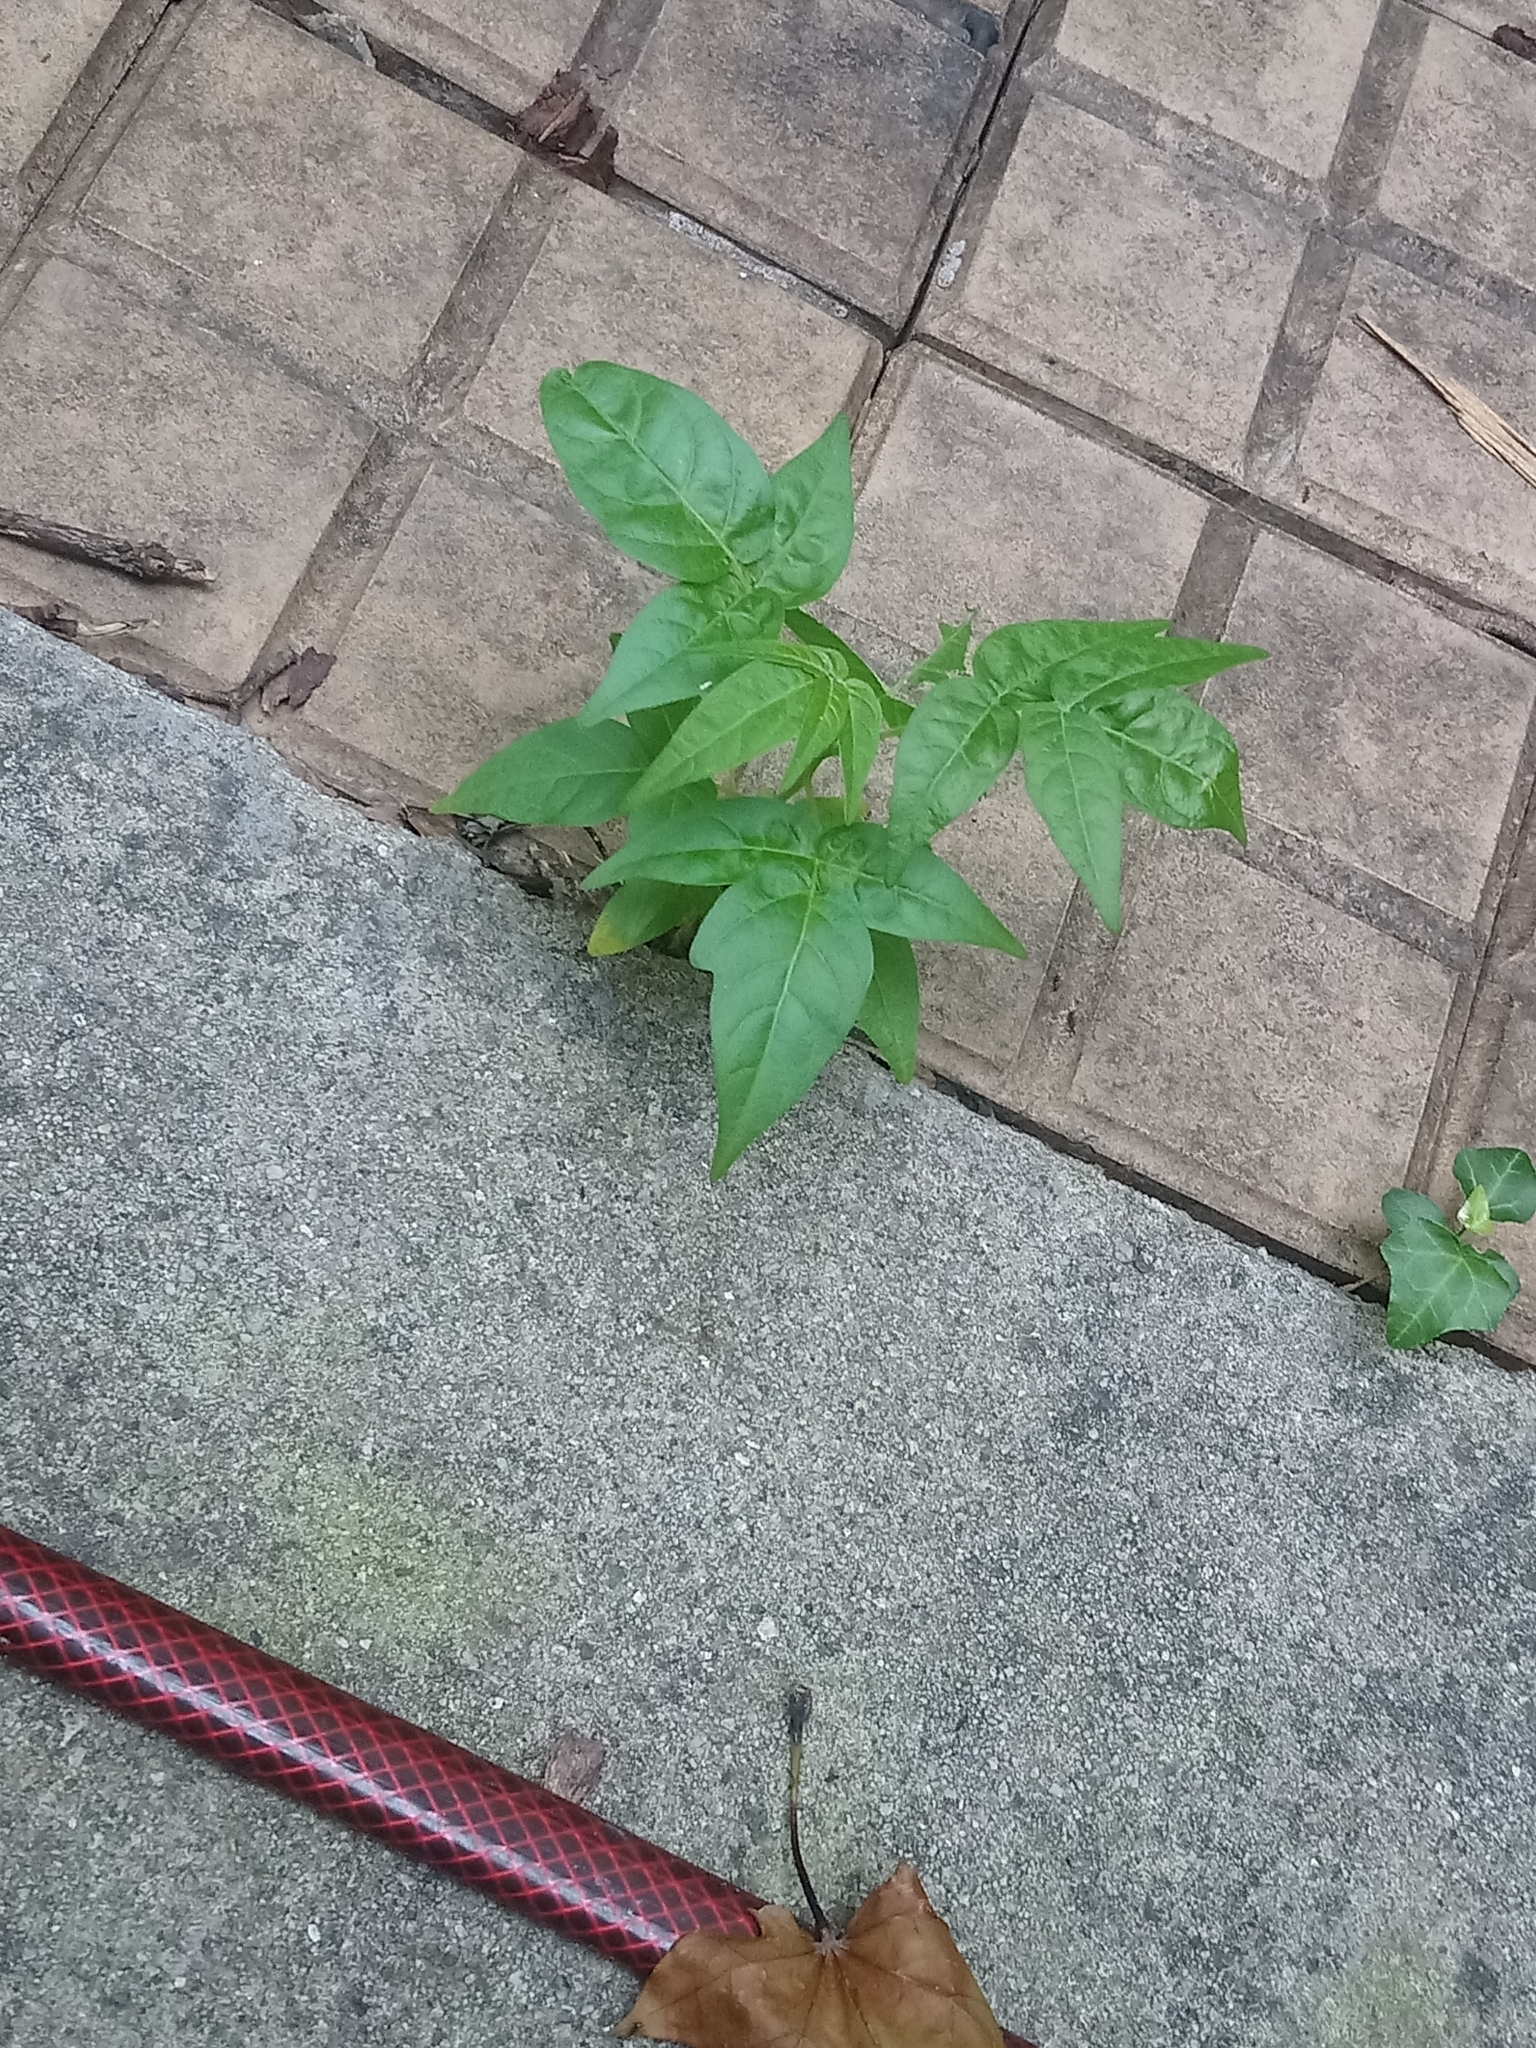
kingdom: Plantae
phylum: Tracheophyta
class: Magnoliopsida
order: Sapindales
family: Simaroubaceae
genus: Ailanthus
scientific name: Ailanthus altissima
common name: Tree-of-heaven
